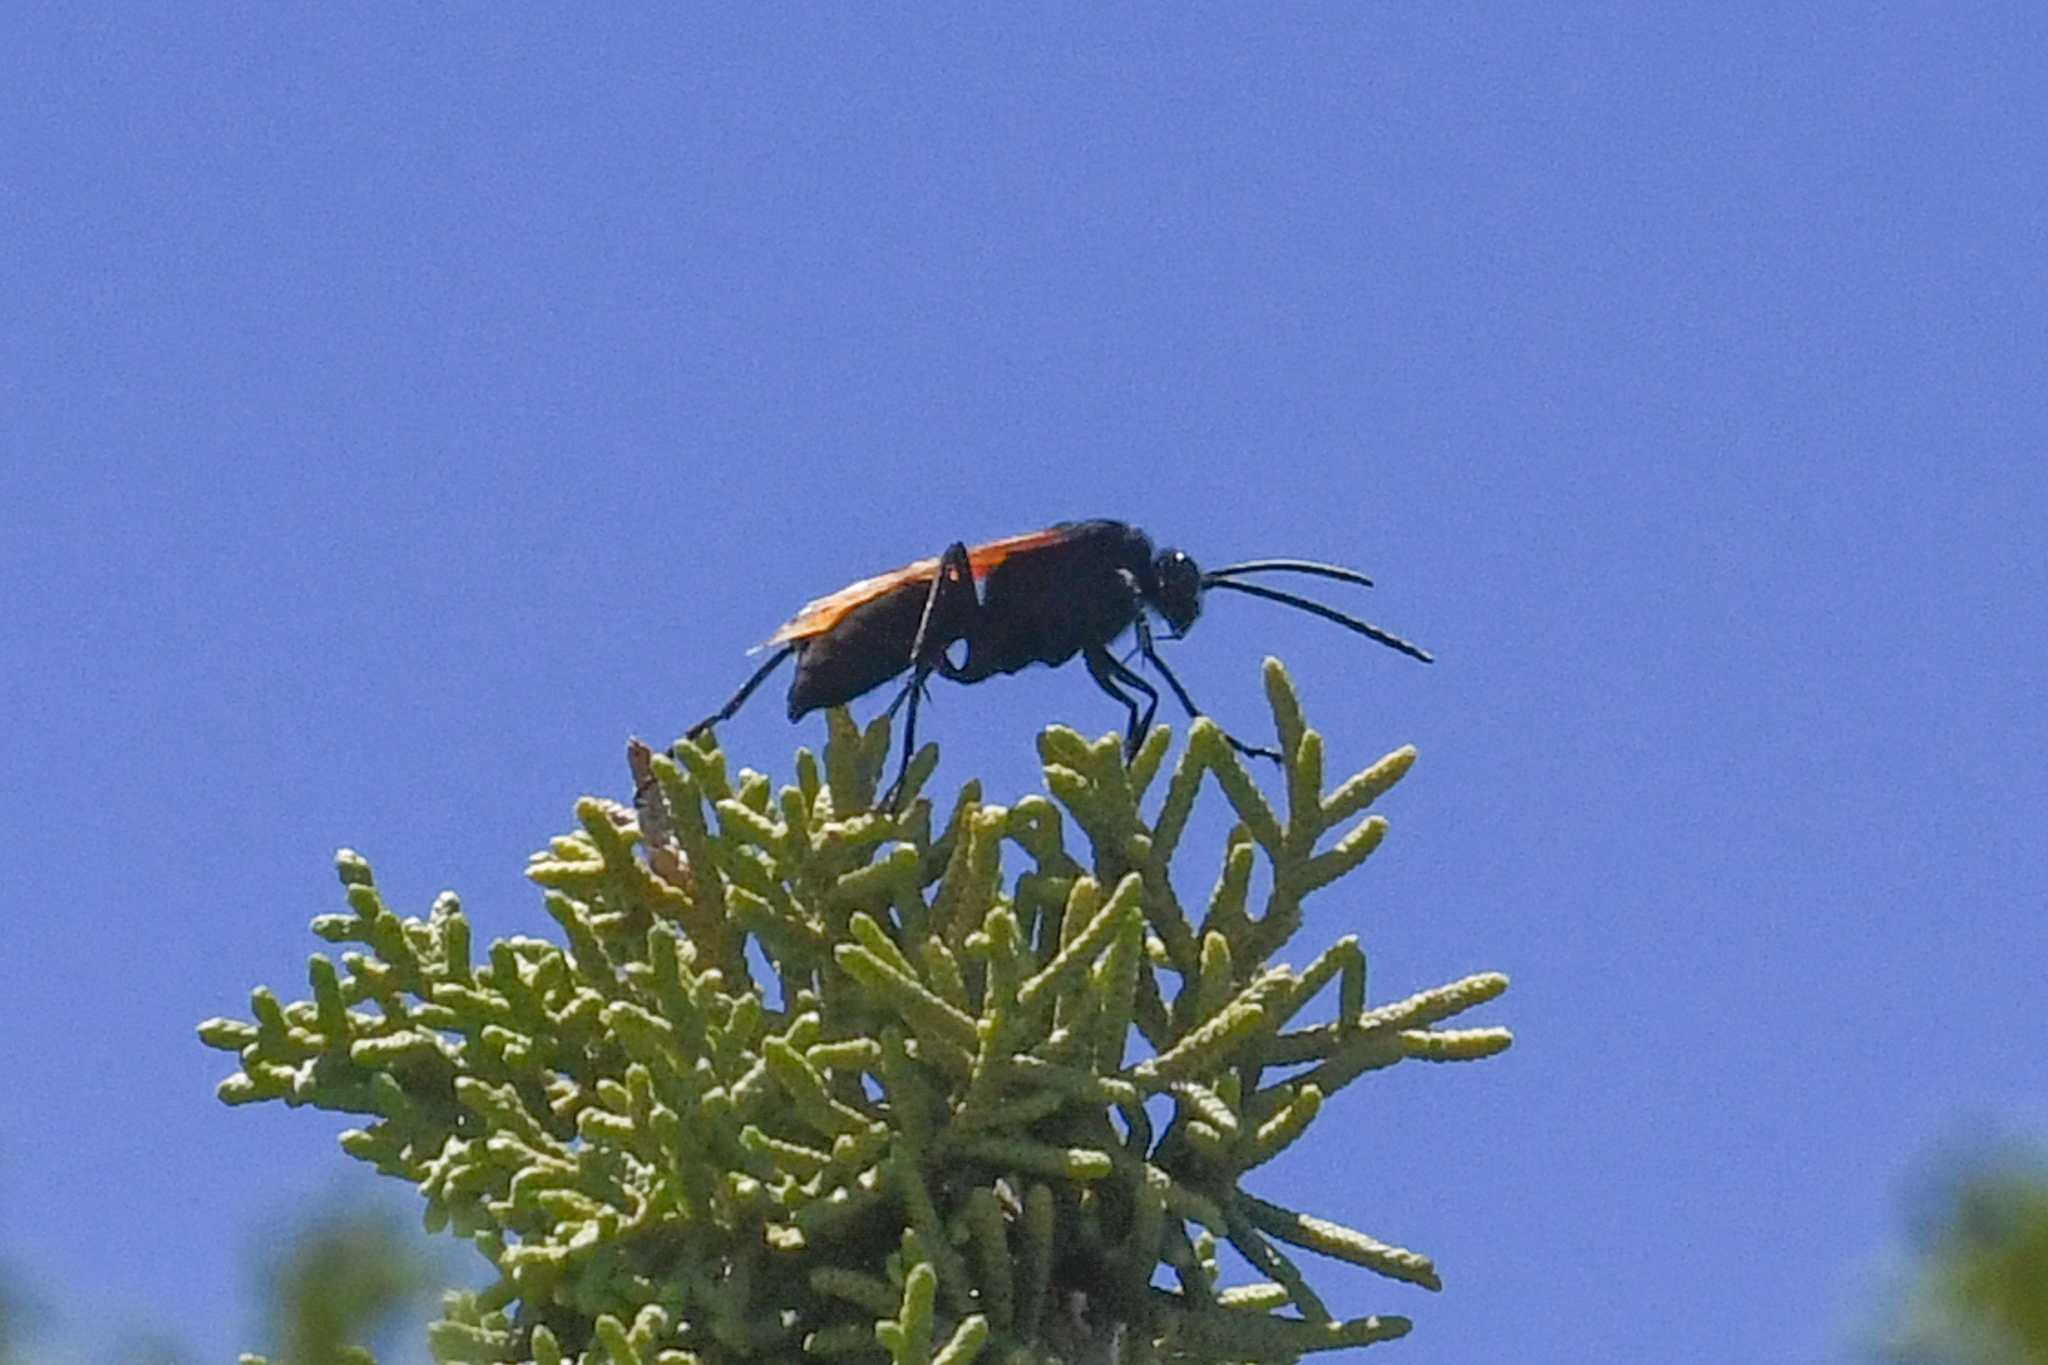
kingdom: Animalia
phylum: Arthropoda
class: Insecta
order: Hymenoptera
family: Pompilidae
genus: Pepsis
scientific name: Pepsis thisbe
